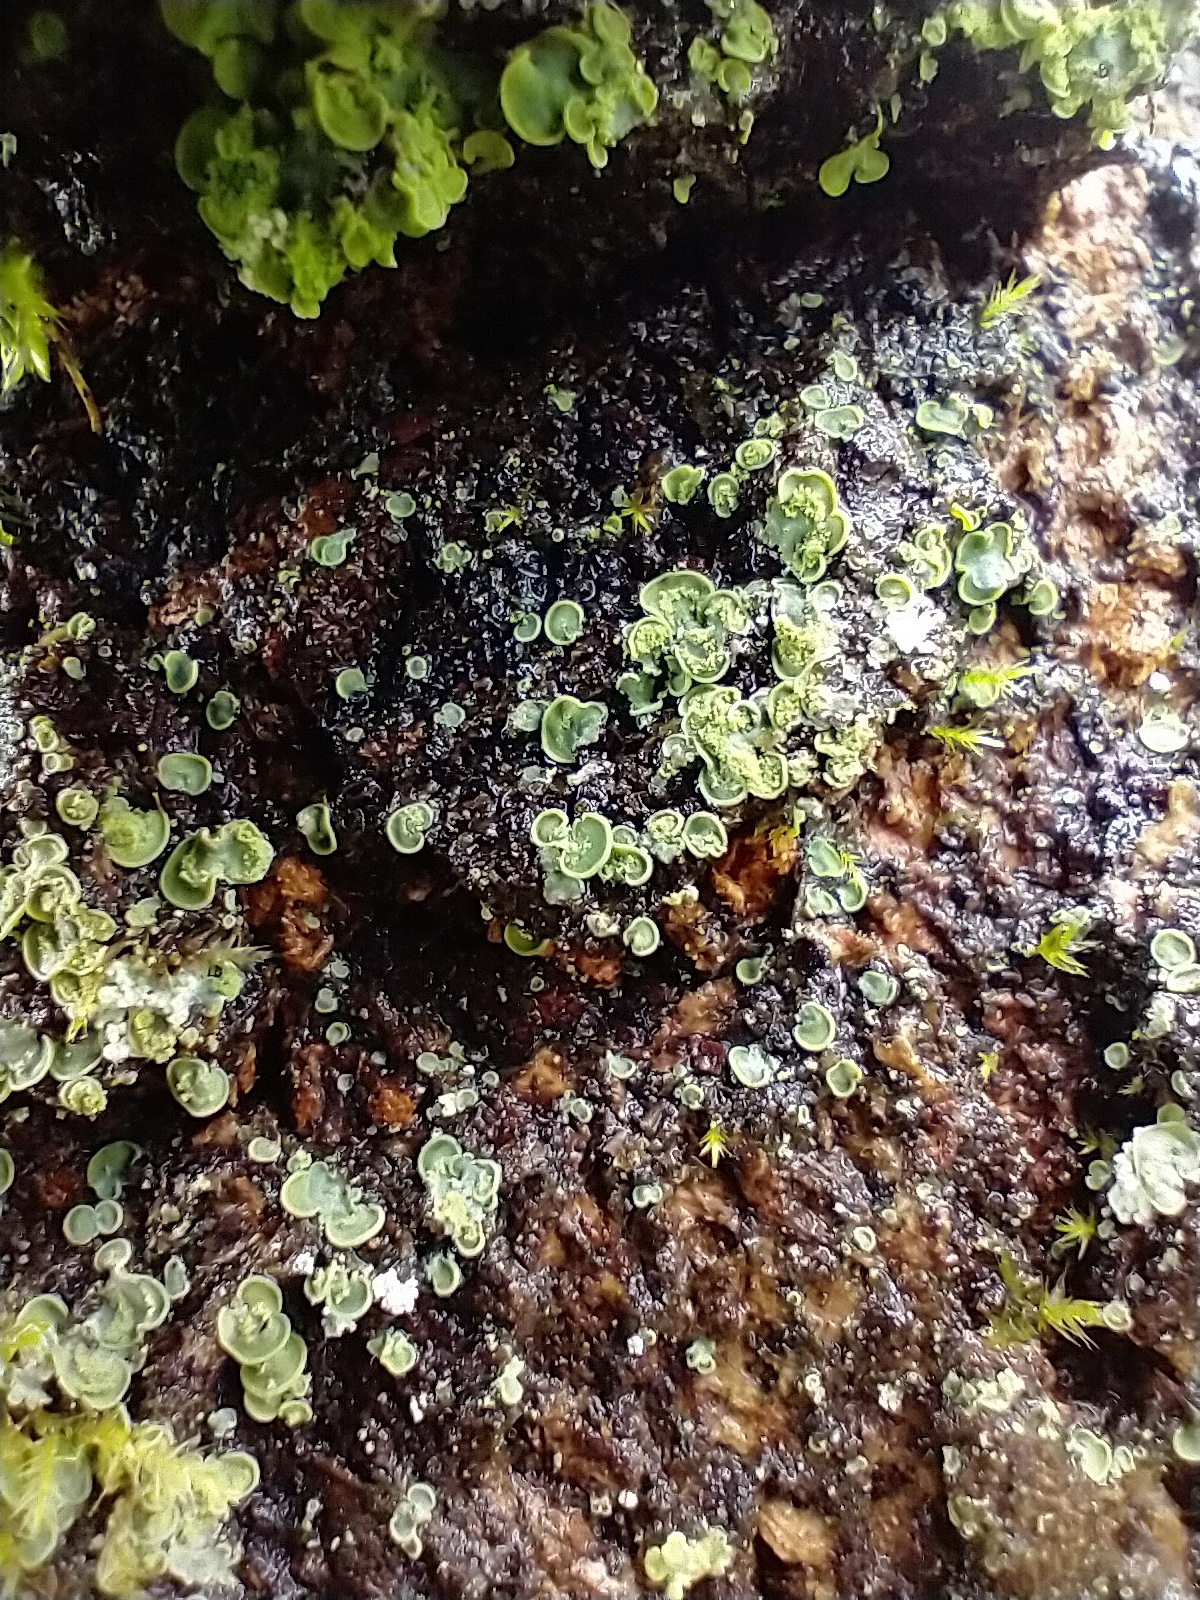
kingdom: Fungi
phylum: Ascomycota
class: Eurotiomycetes
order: Verrucariales
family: Verrucariaceae
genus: Normandina
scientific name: Normandina pulchella
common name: Elf ears lichen
